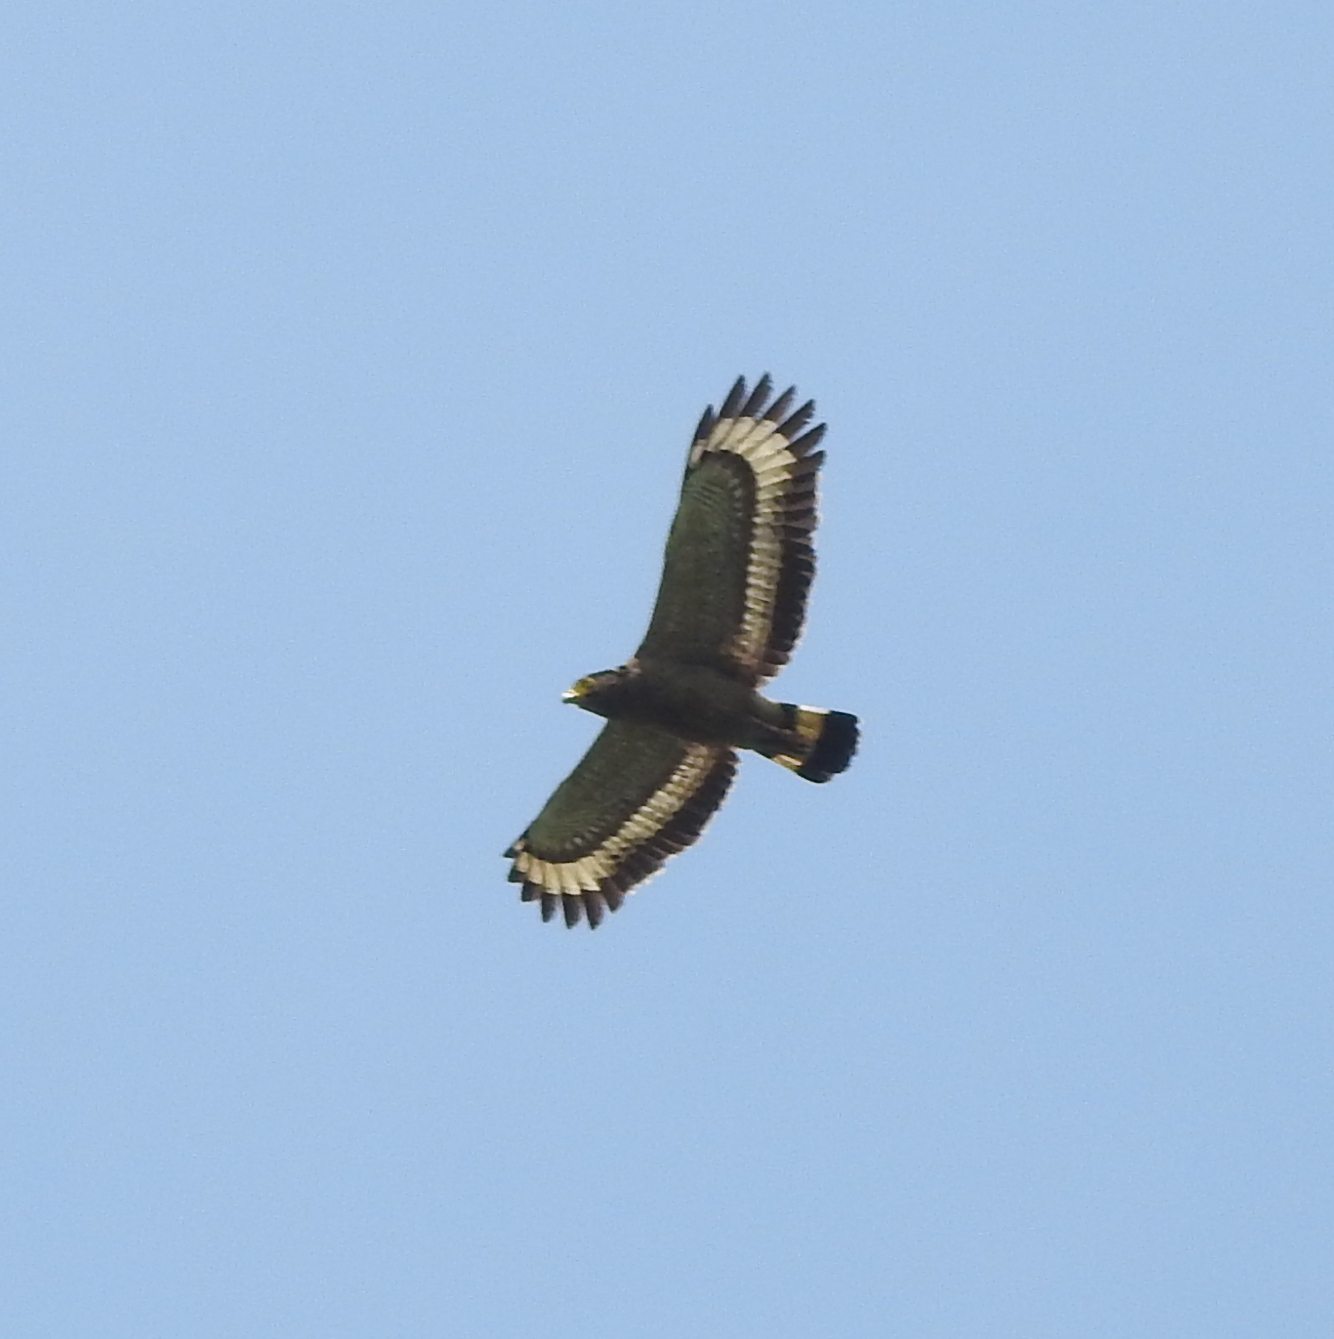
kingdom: Animalia
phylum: Chordata
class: Aves
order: Accipitriformes
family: Accipitridae
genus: Spilornis
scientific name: Spilornis cheela
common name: Crested serpent eagle
